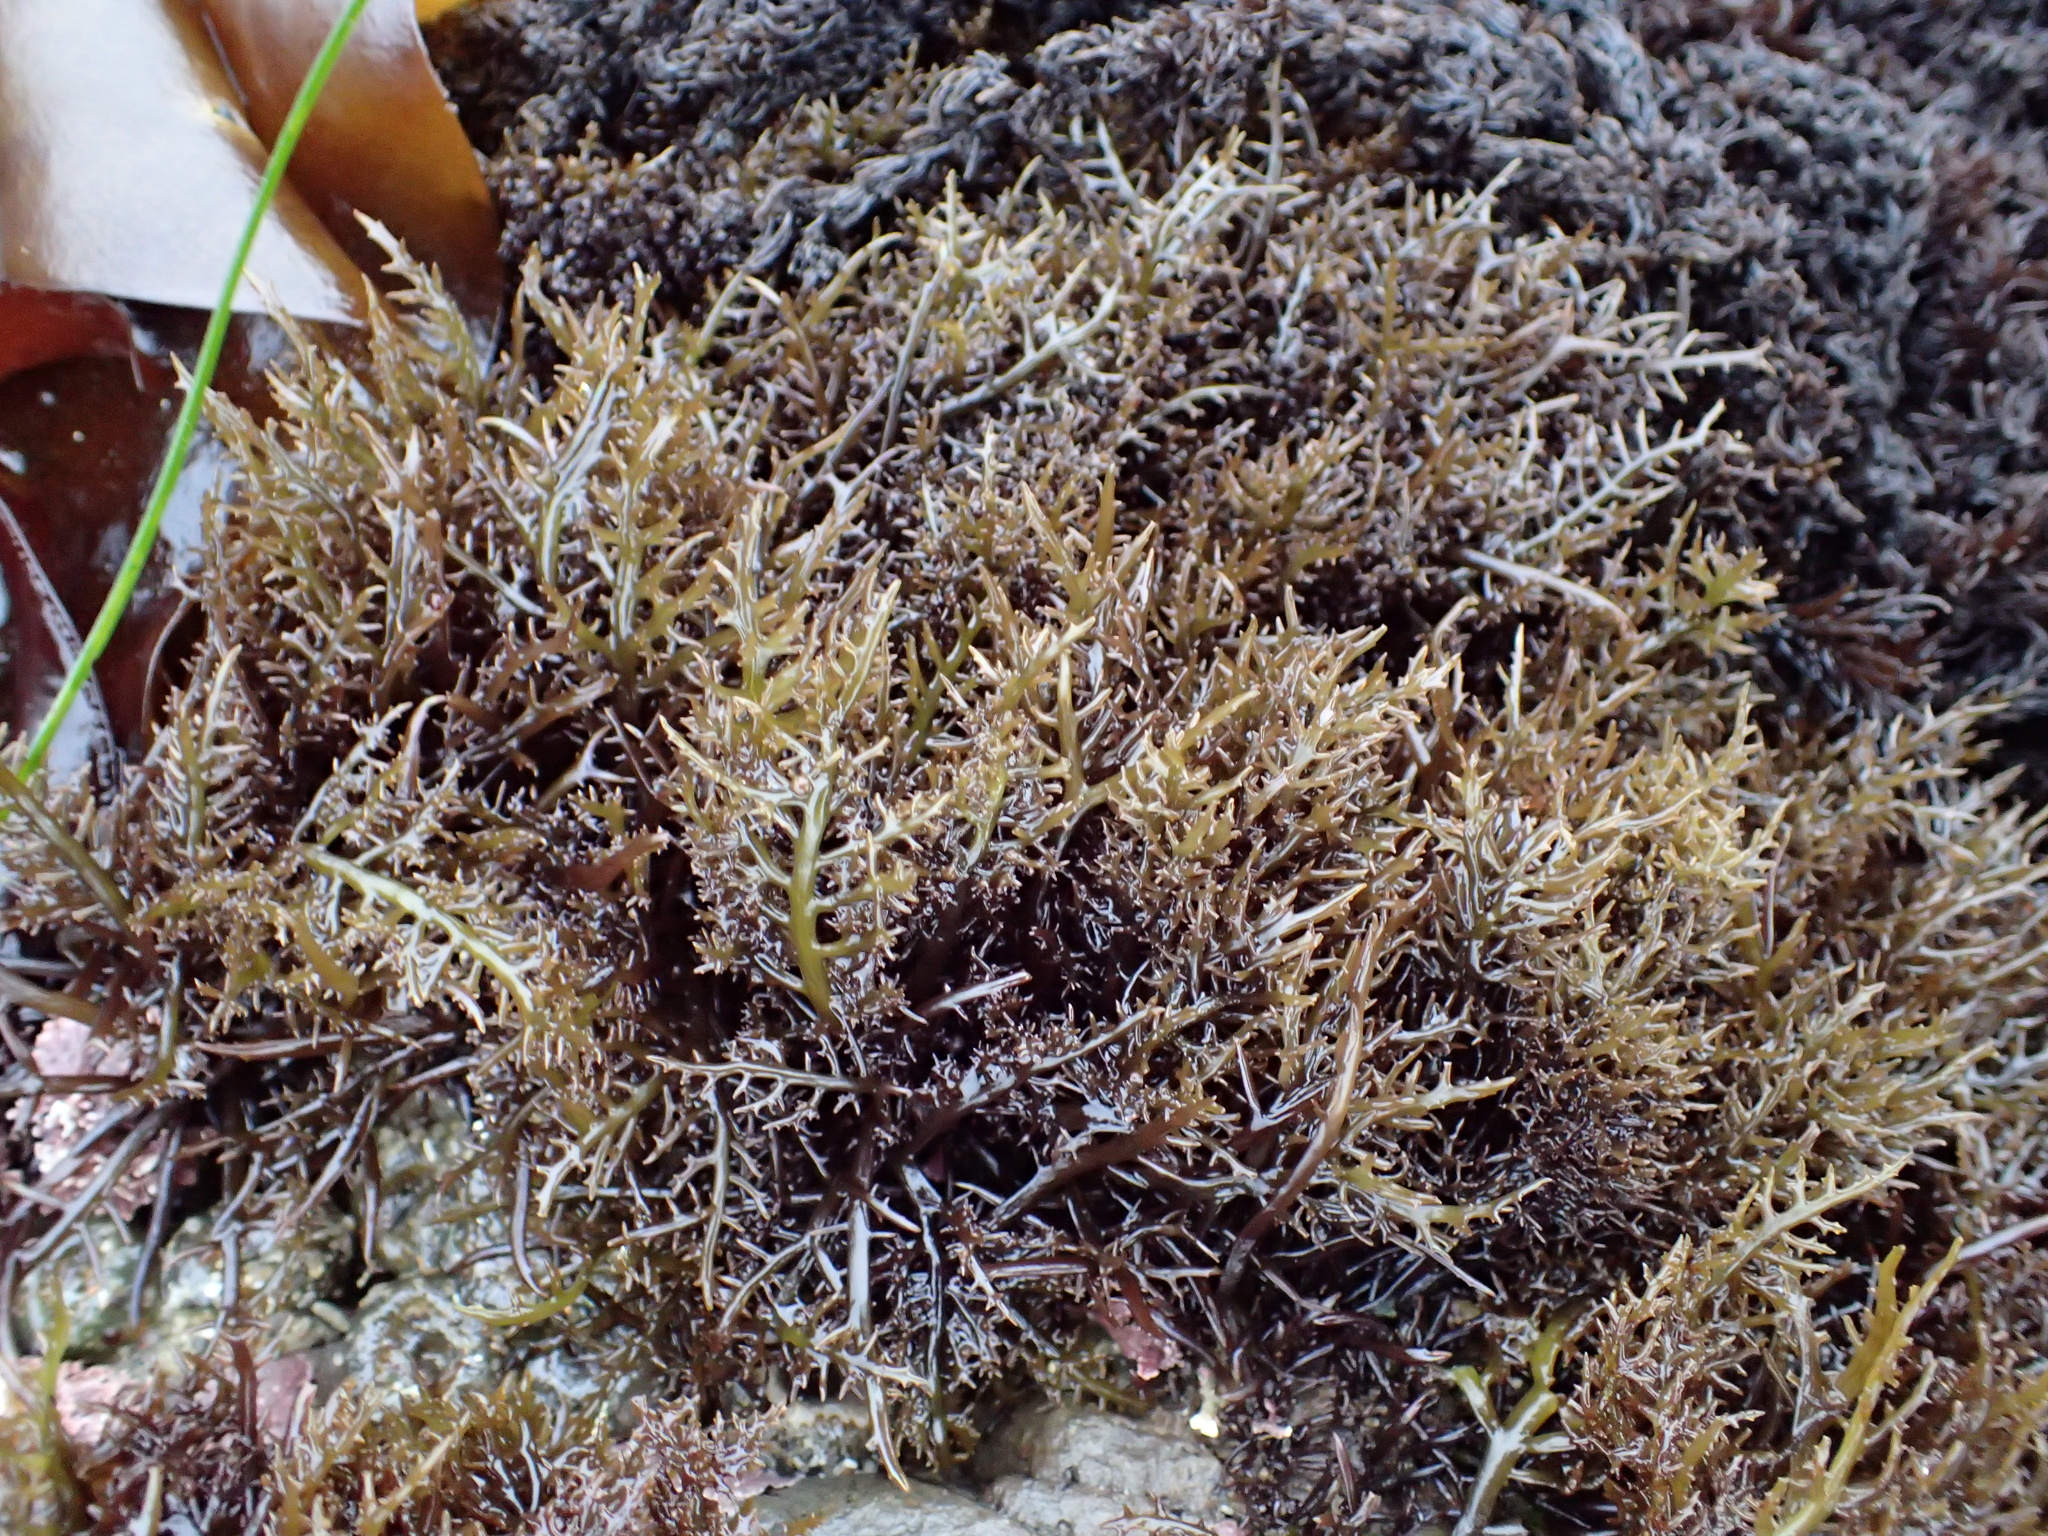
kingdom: Plantae
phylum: Rhodophyta
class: Florideophyceae
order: Gigartinales
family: Gigartinaceae
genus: Chondracanthus
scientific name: Chondracanthus canaliculatus
